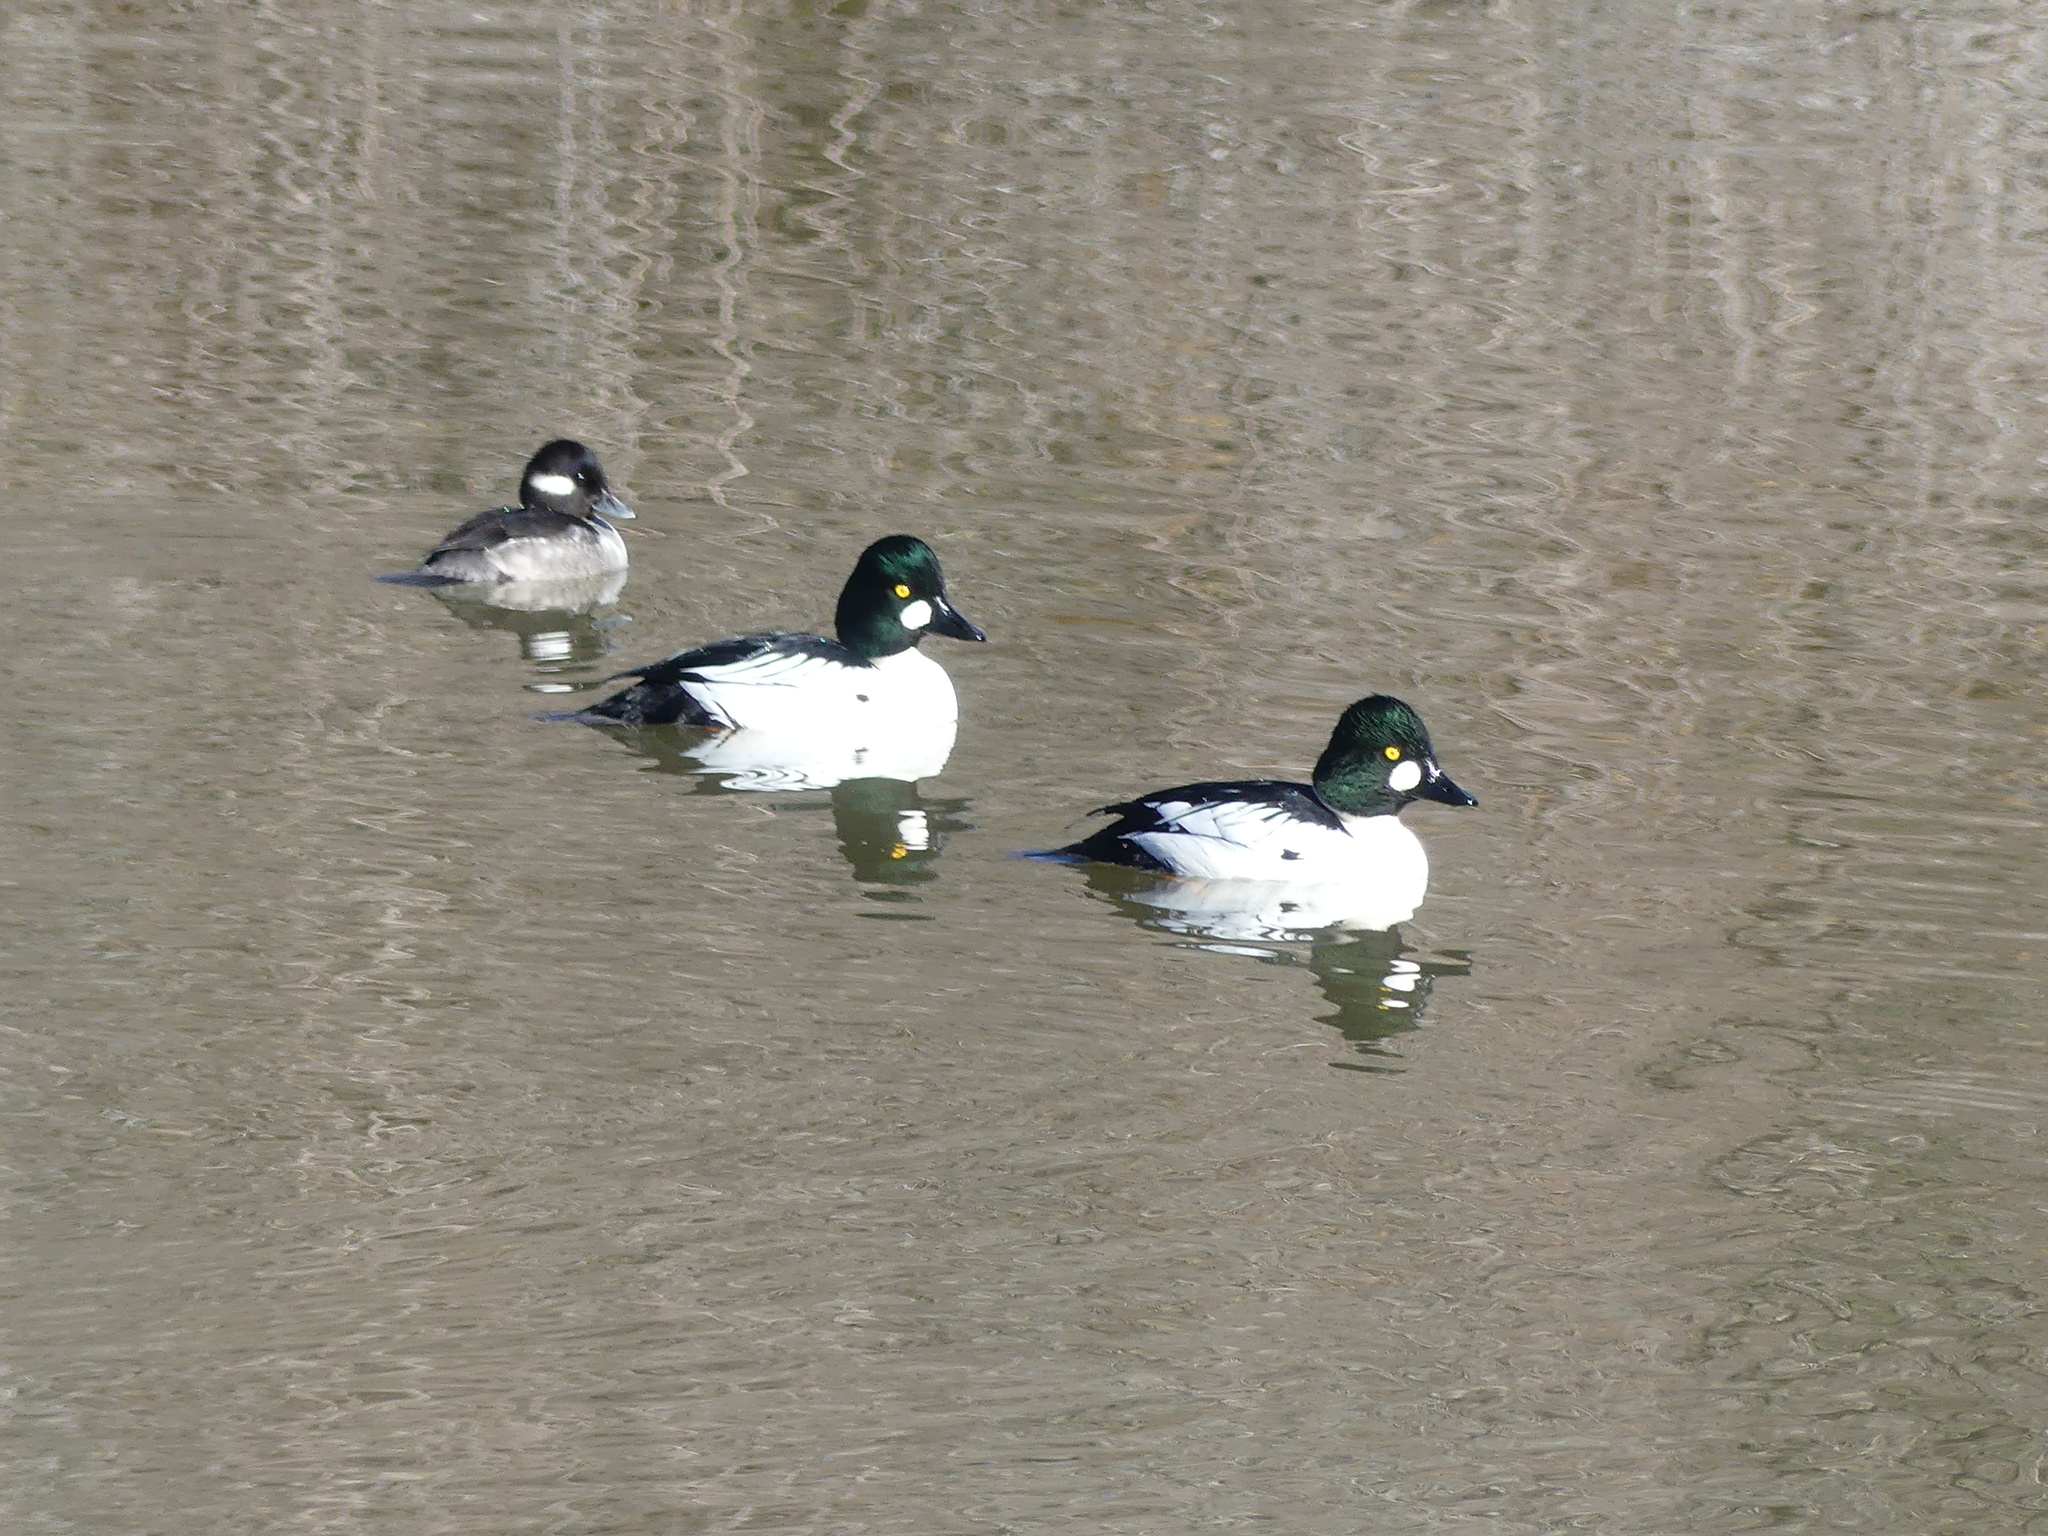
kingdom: Animalia
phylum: Chordata
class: Aves
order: Anseriformes
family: Anatidae
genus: Bucephala
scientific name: Bucephala clangula
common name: Common goldeneye
